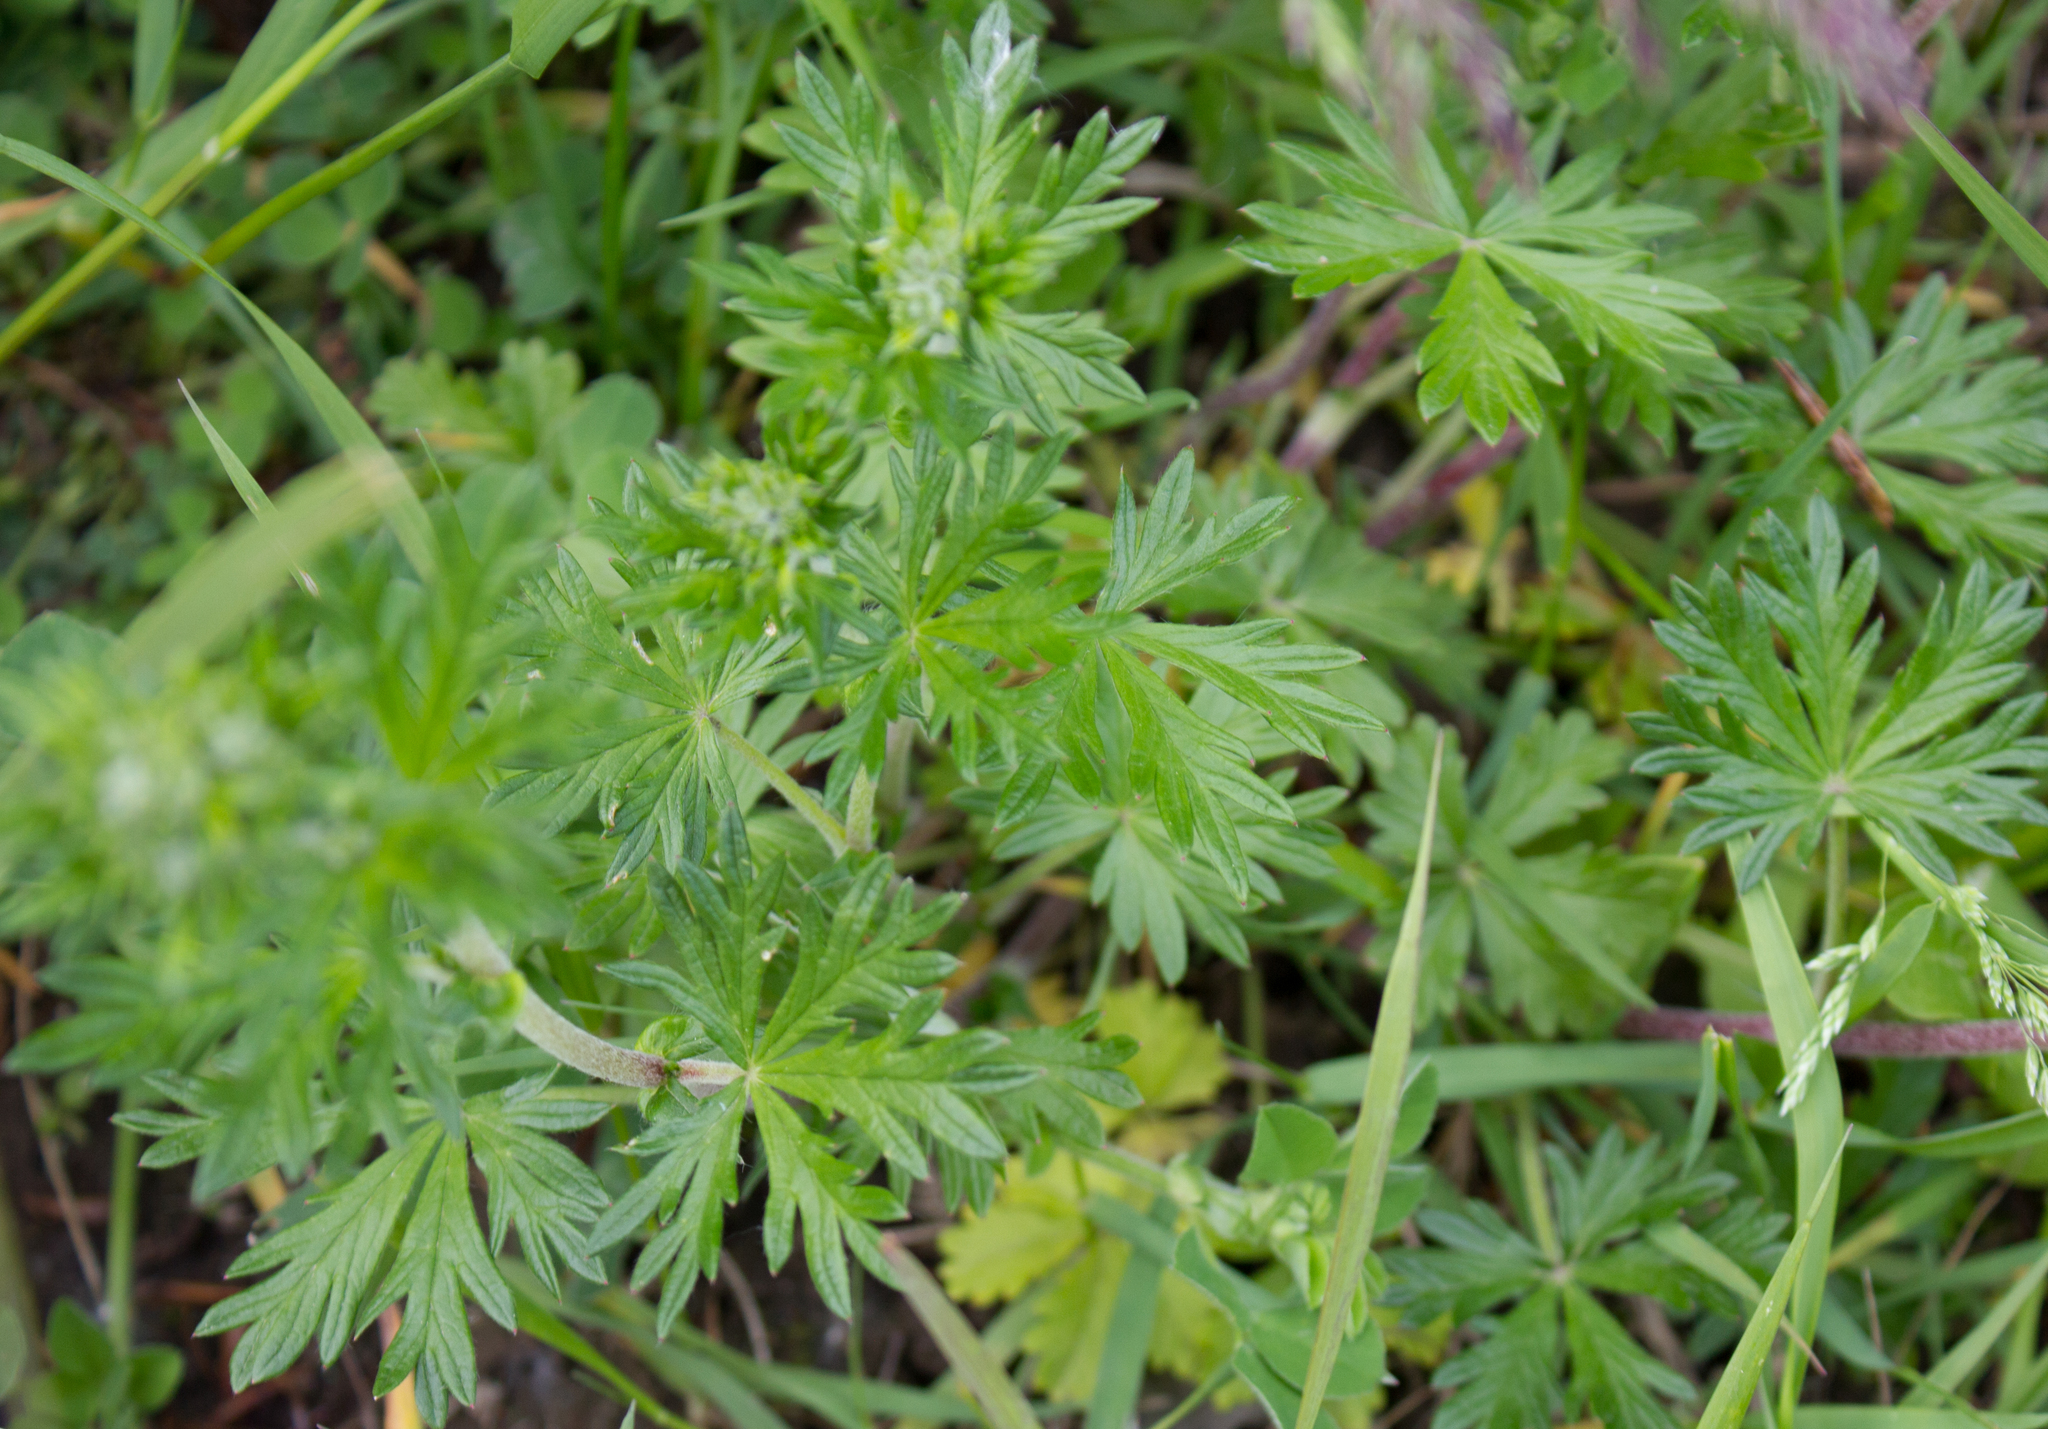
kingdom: Plantae
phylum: Tracheophyta
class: Magnoliopsida
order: Rosales
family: Rosaceae
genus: Potentilla
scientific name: Potentilla argentea
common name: Hoary cinquefoil
